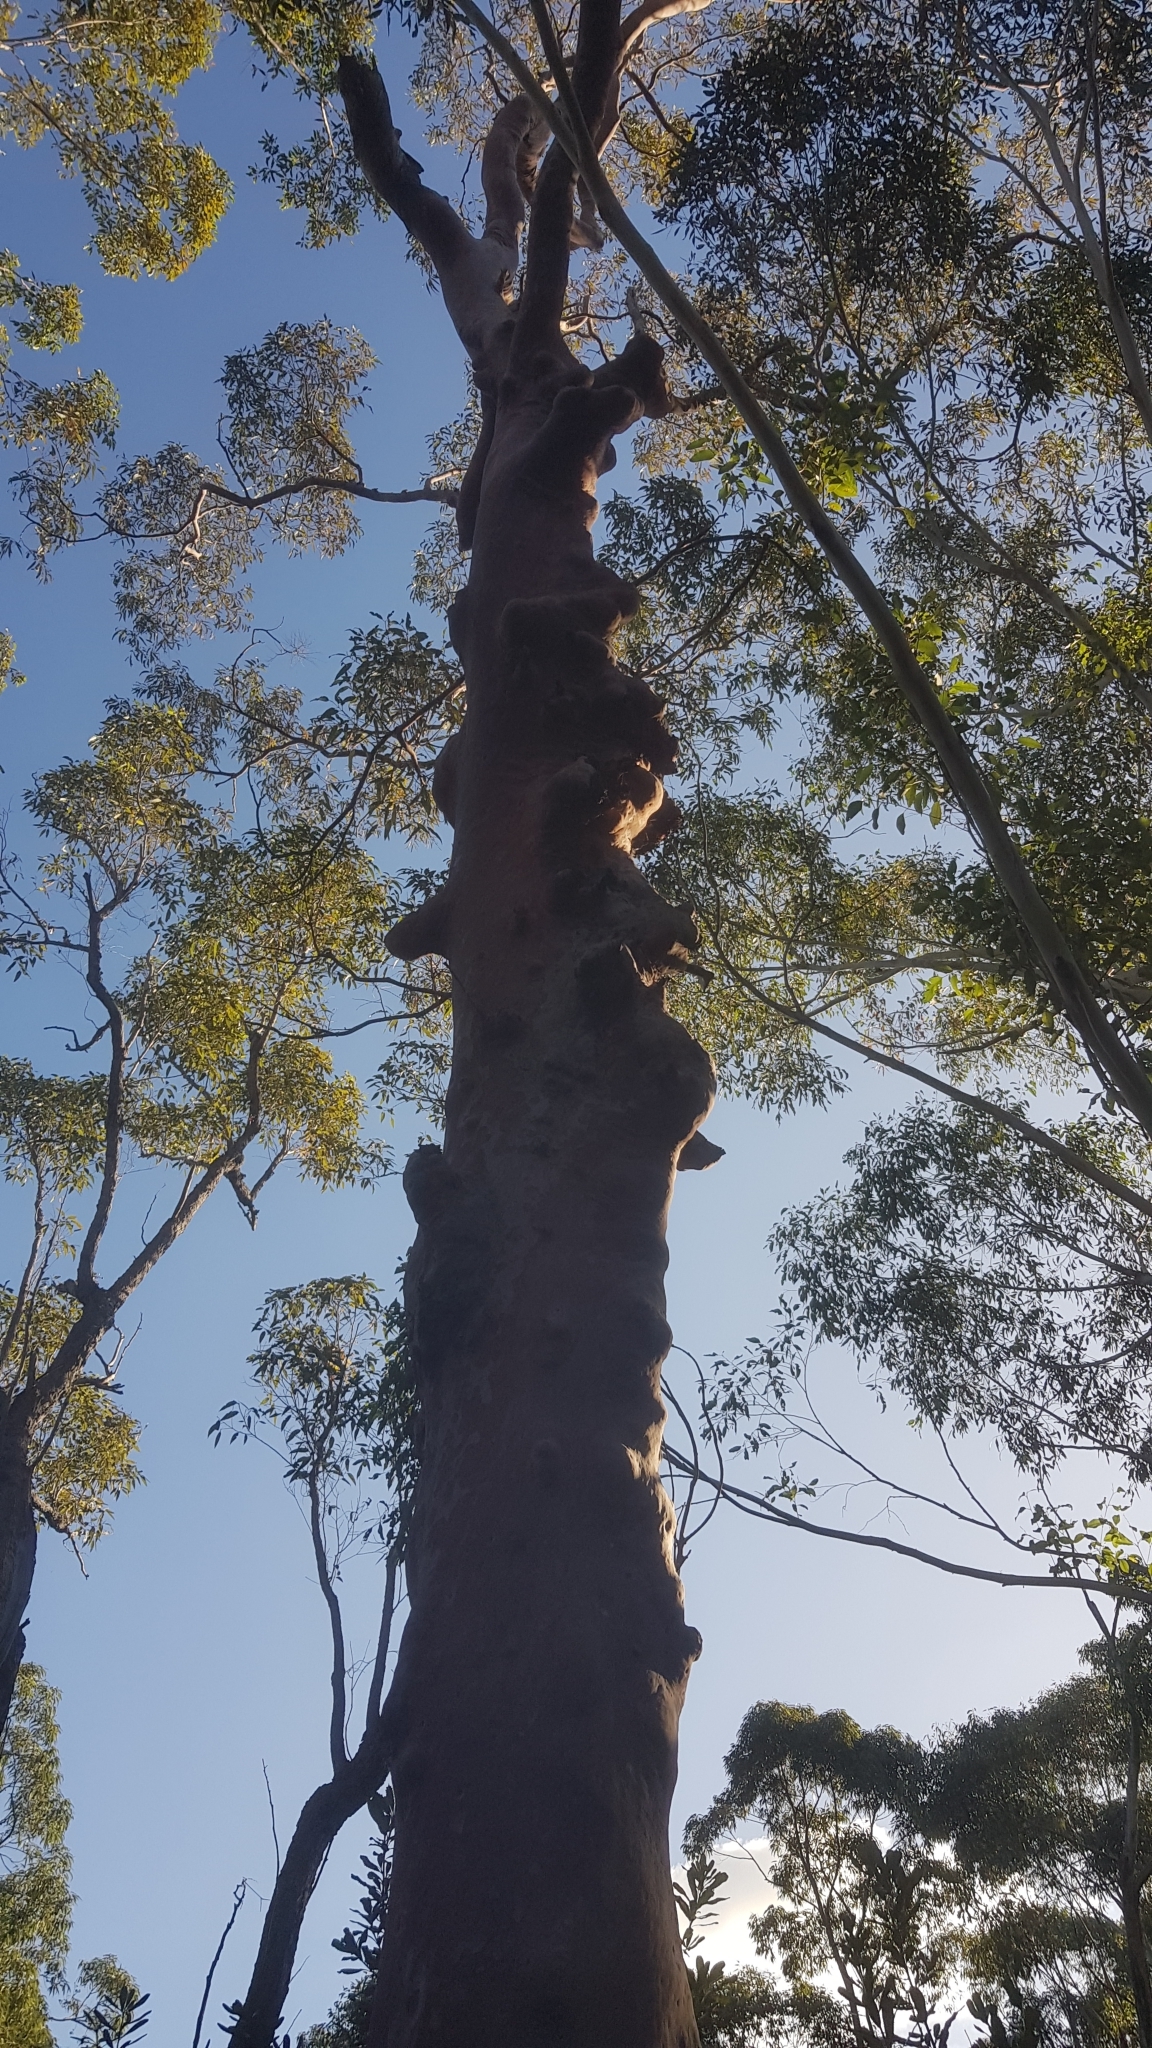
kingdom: Plantae
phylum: Tracheophyta
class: Magnoliopsida
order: Myrtales
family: Myrtaceae
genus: Angophora
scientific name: Angophora costata
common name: Gum myrtle
